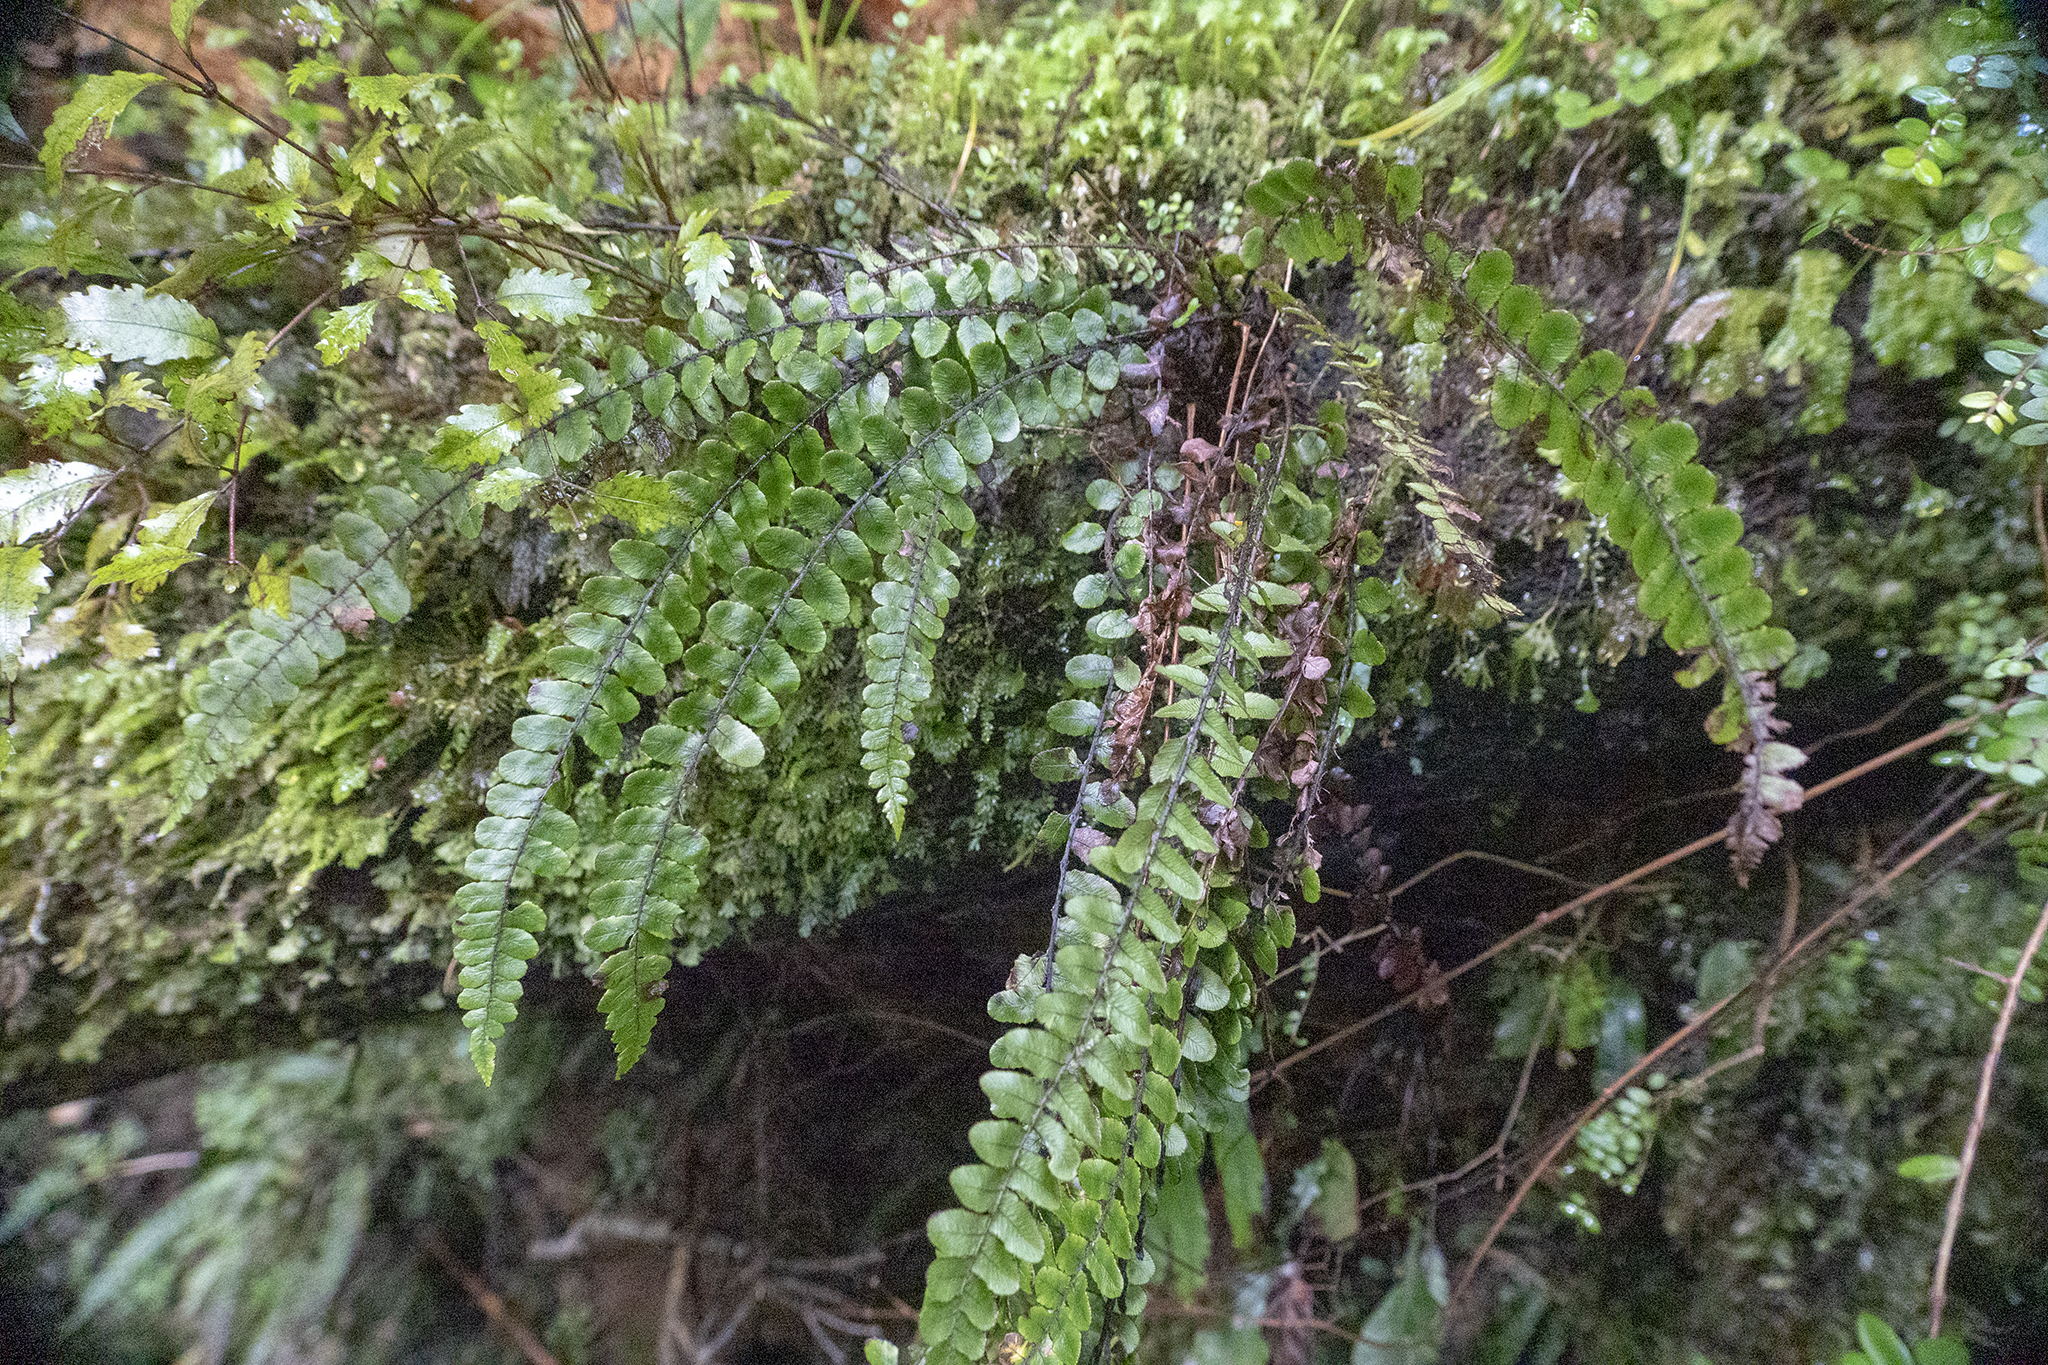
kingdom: Plantae
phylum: Tracheophyta
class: Polypodiopsida
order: Polypodiales
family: Blechnaceae
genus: Cranfillia
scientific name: Cranfillia fluviatilis
